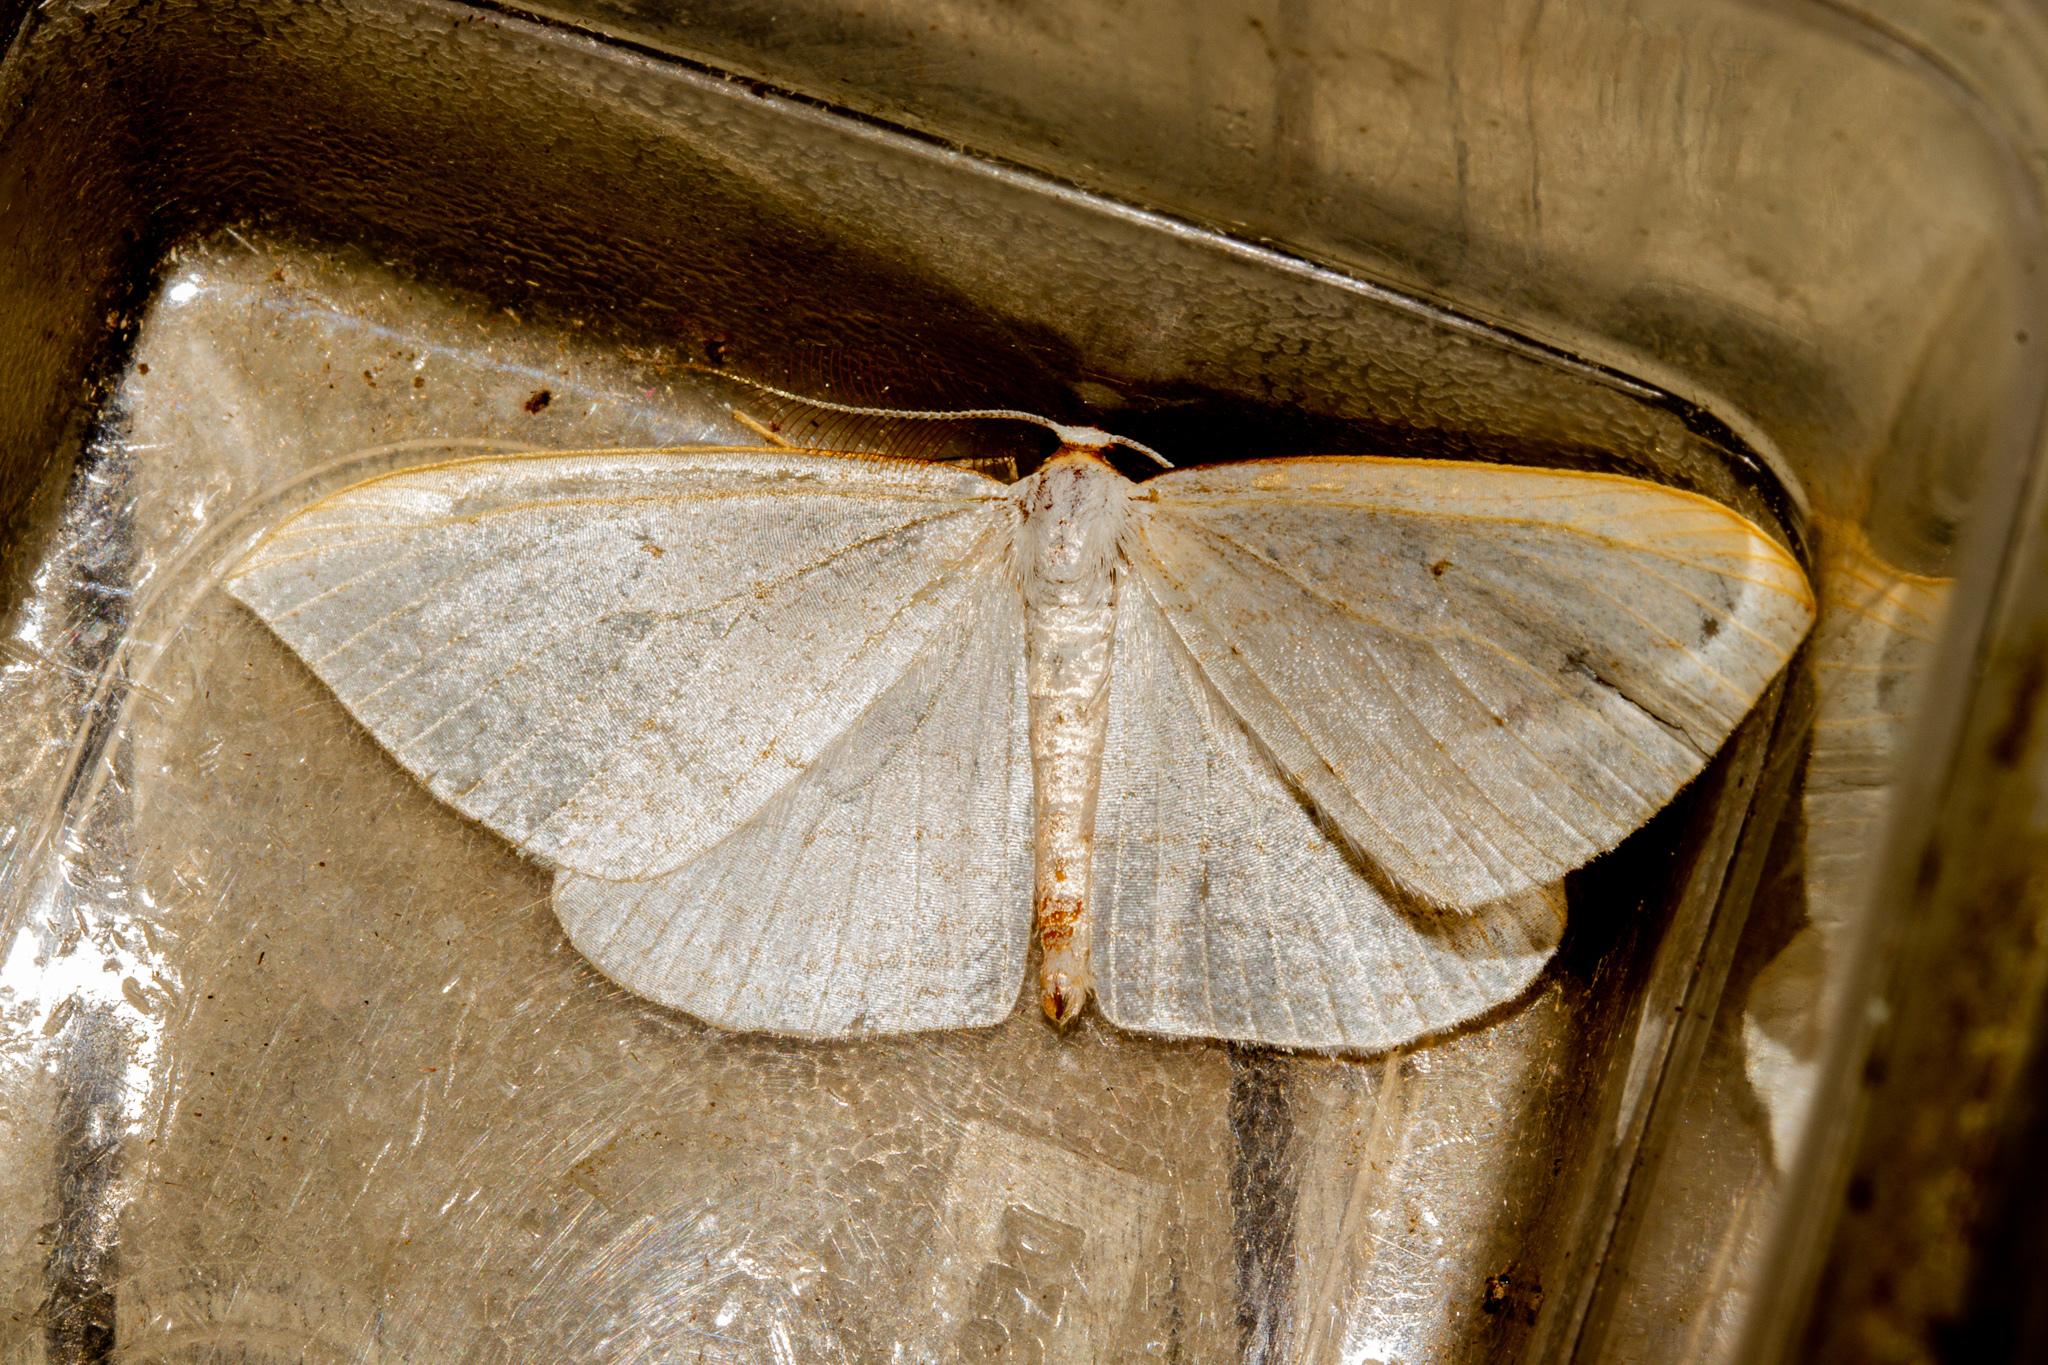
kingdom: Animalia
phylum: Arthropoda
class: Insecta
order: Lepidoptera
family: Geometridae
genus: Orthoclydon
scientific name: Orthoclydon praefectata
